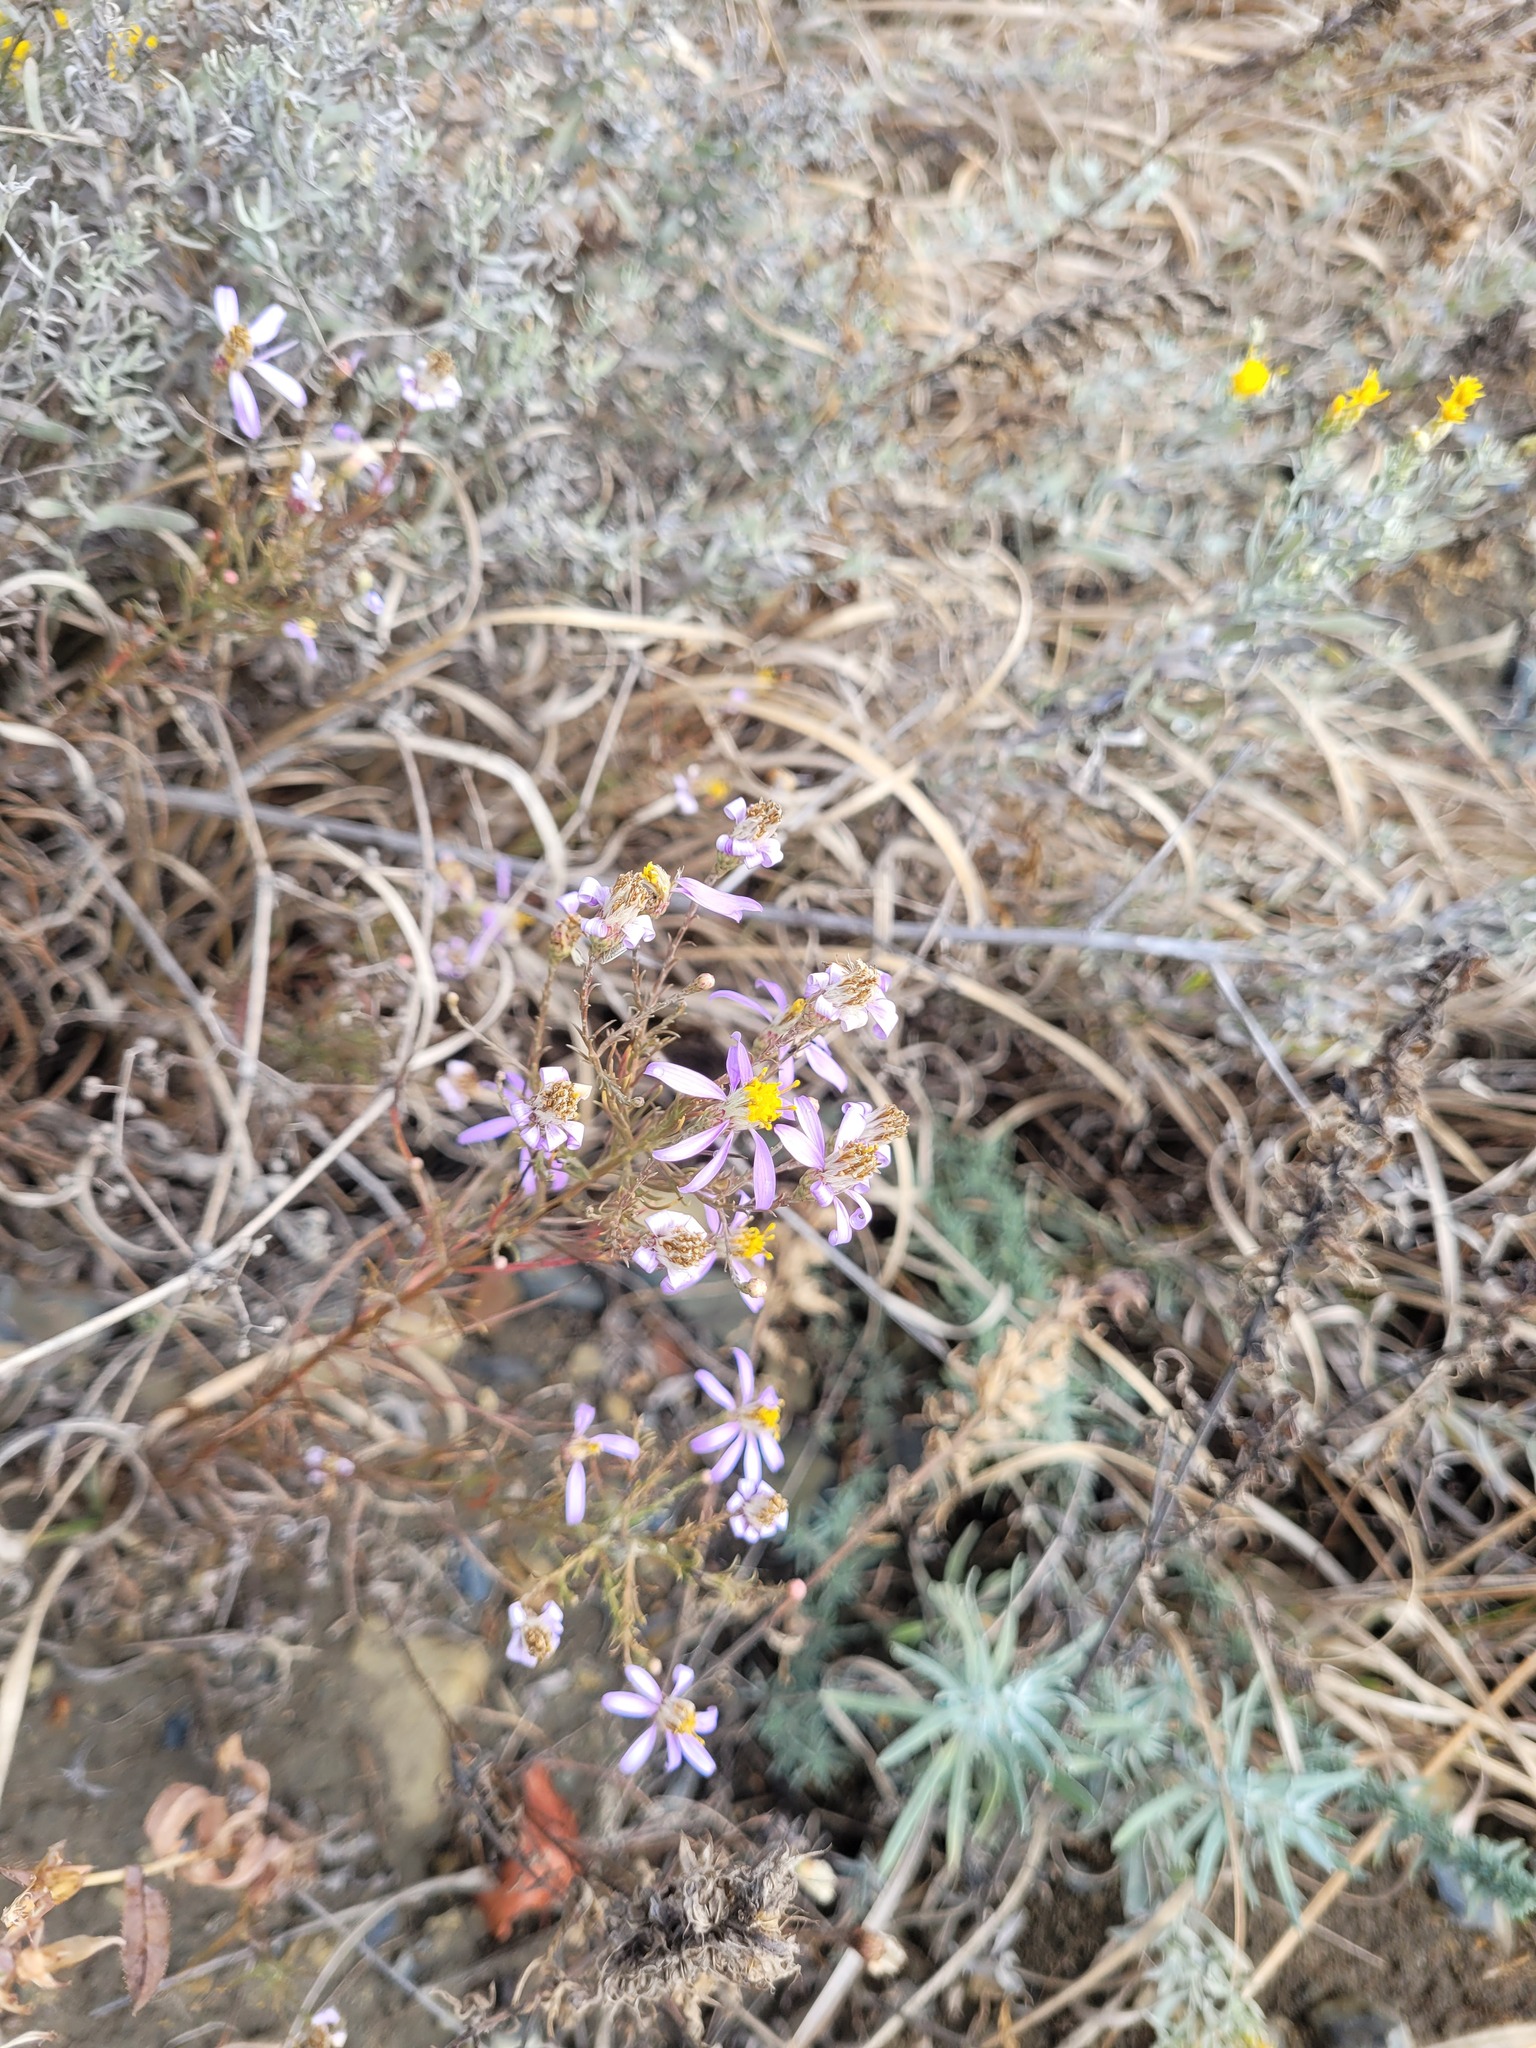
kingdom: Plantae
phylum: Tracheophyta
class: Magnoliopsida
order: Asterales
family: Asteraceae
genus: Galatella
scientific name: Galatella angustissima
